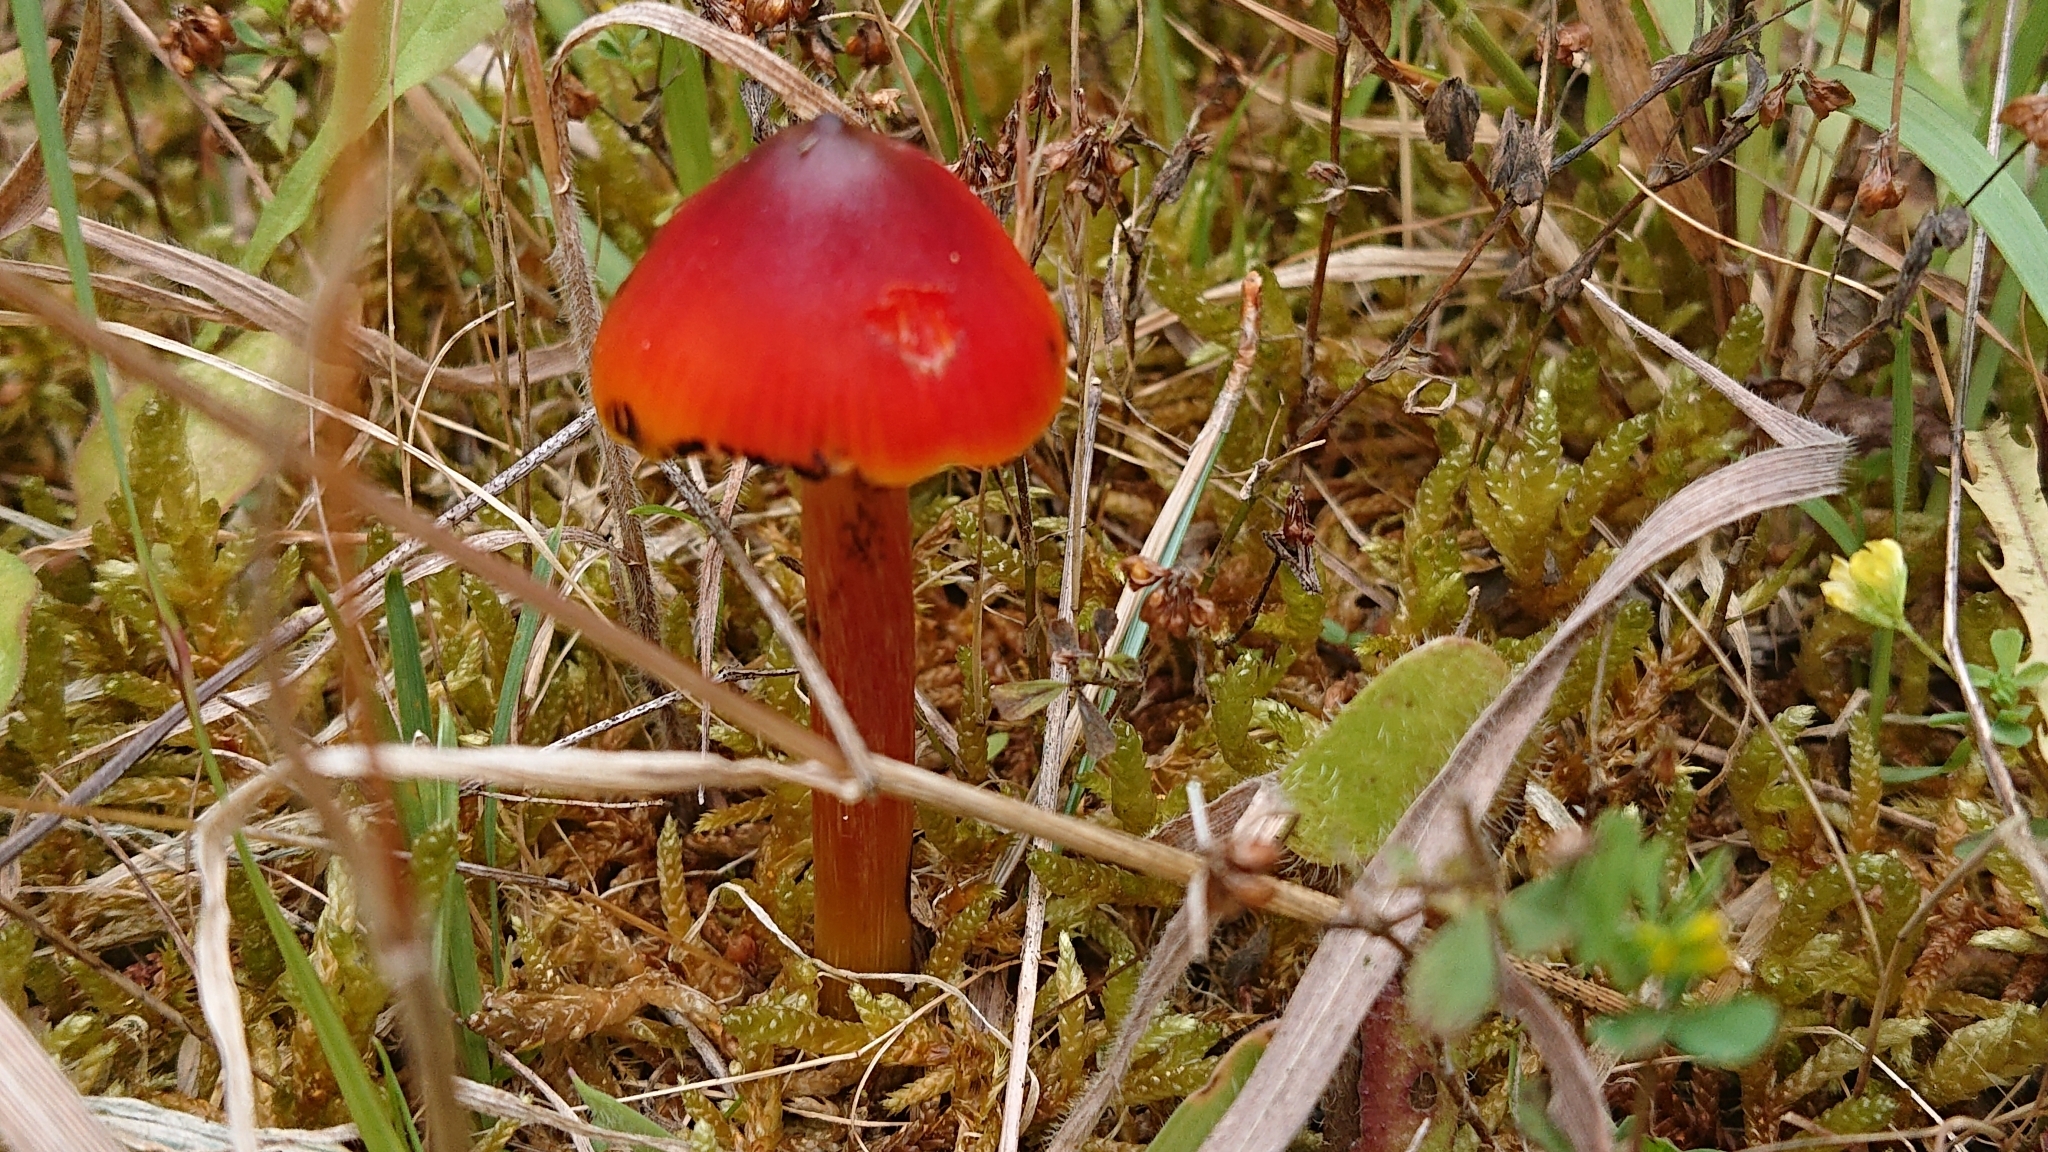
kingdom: Fungi
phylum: Basidiomycota
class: Agaricomycetes
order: Agaricales
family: Hygrophoraceae
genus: Hygrocybe
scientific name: Hygrocybe conica
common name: Blackening wax-cap
